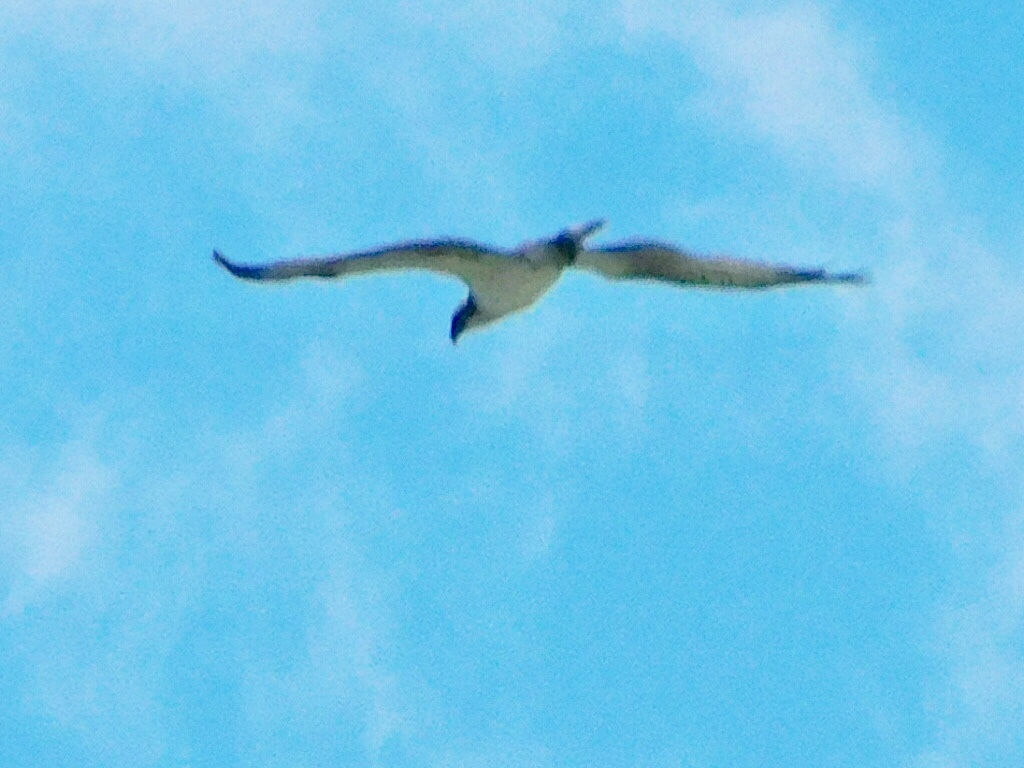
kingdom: Animalia
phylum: Chordata
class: Aves
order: Accipitriformes
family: Pandionidae
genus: Pandion
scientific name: Pandion haliaetus
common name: Osprey
